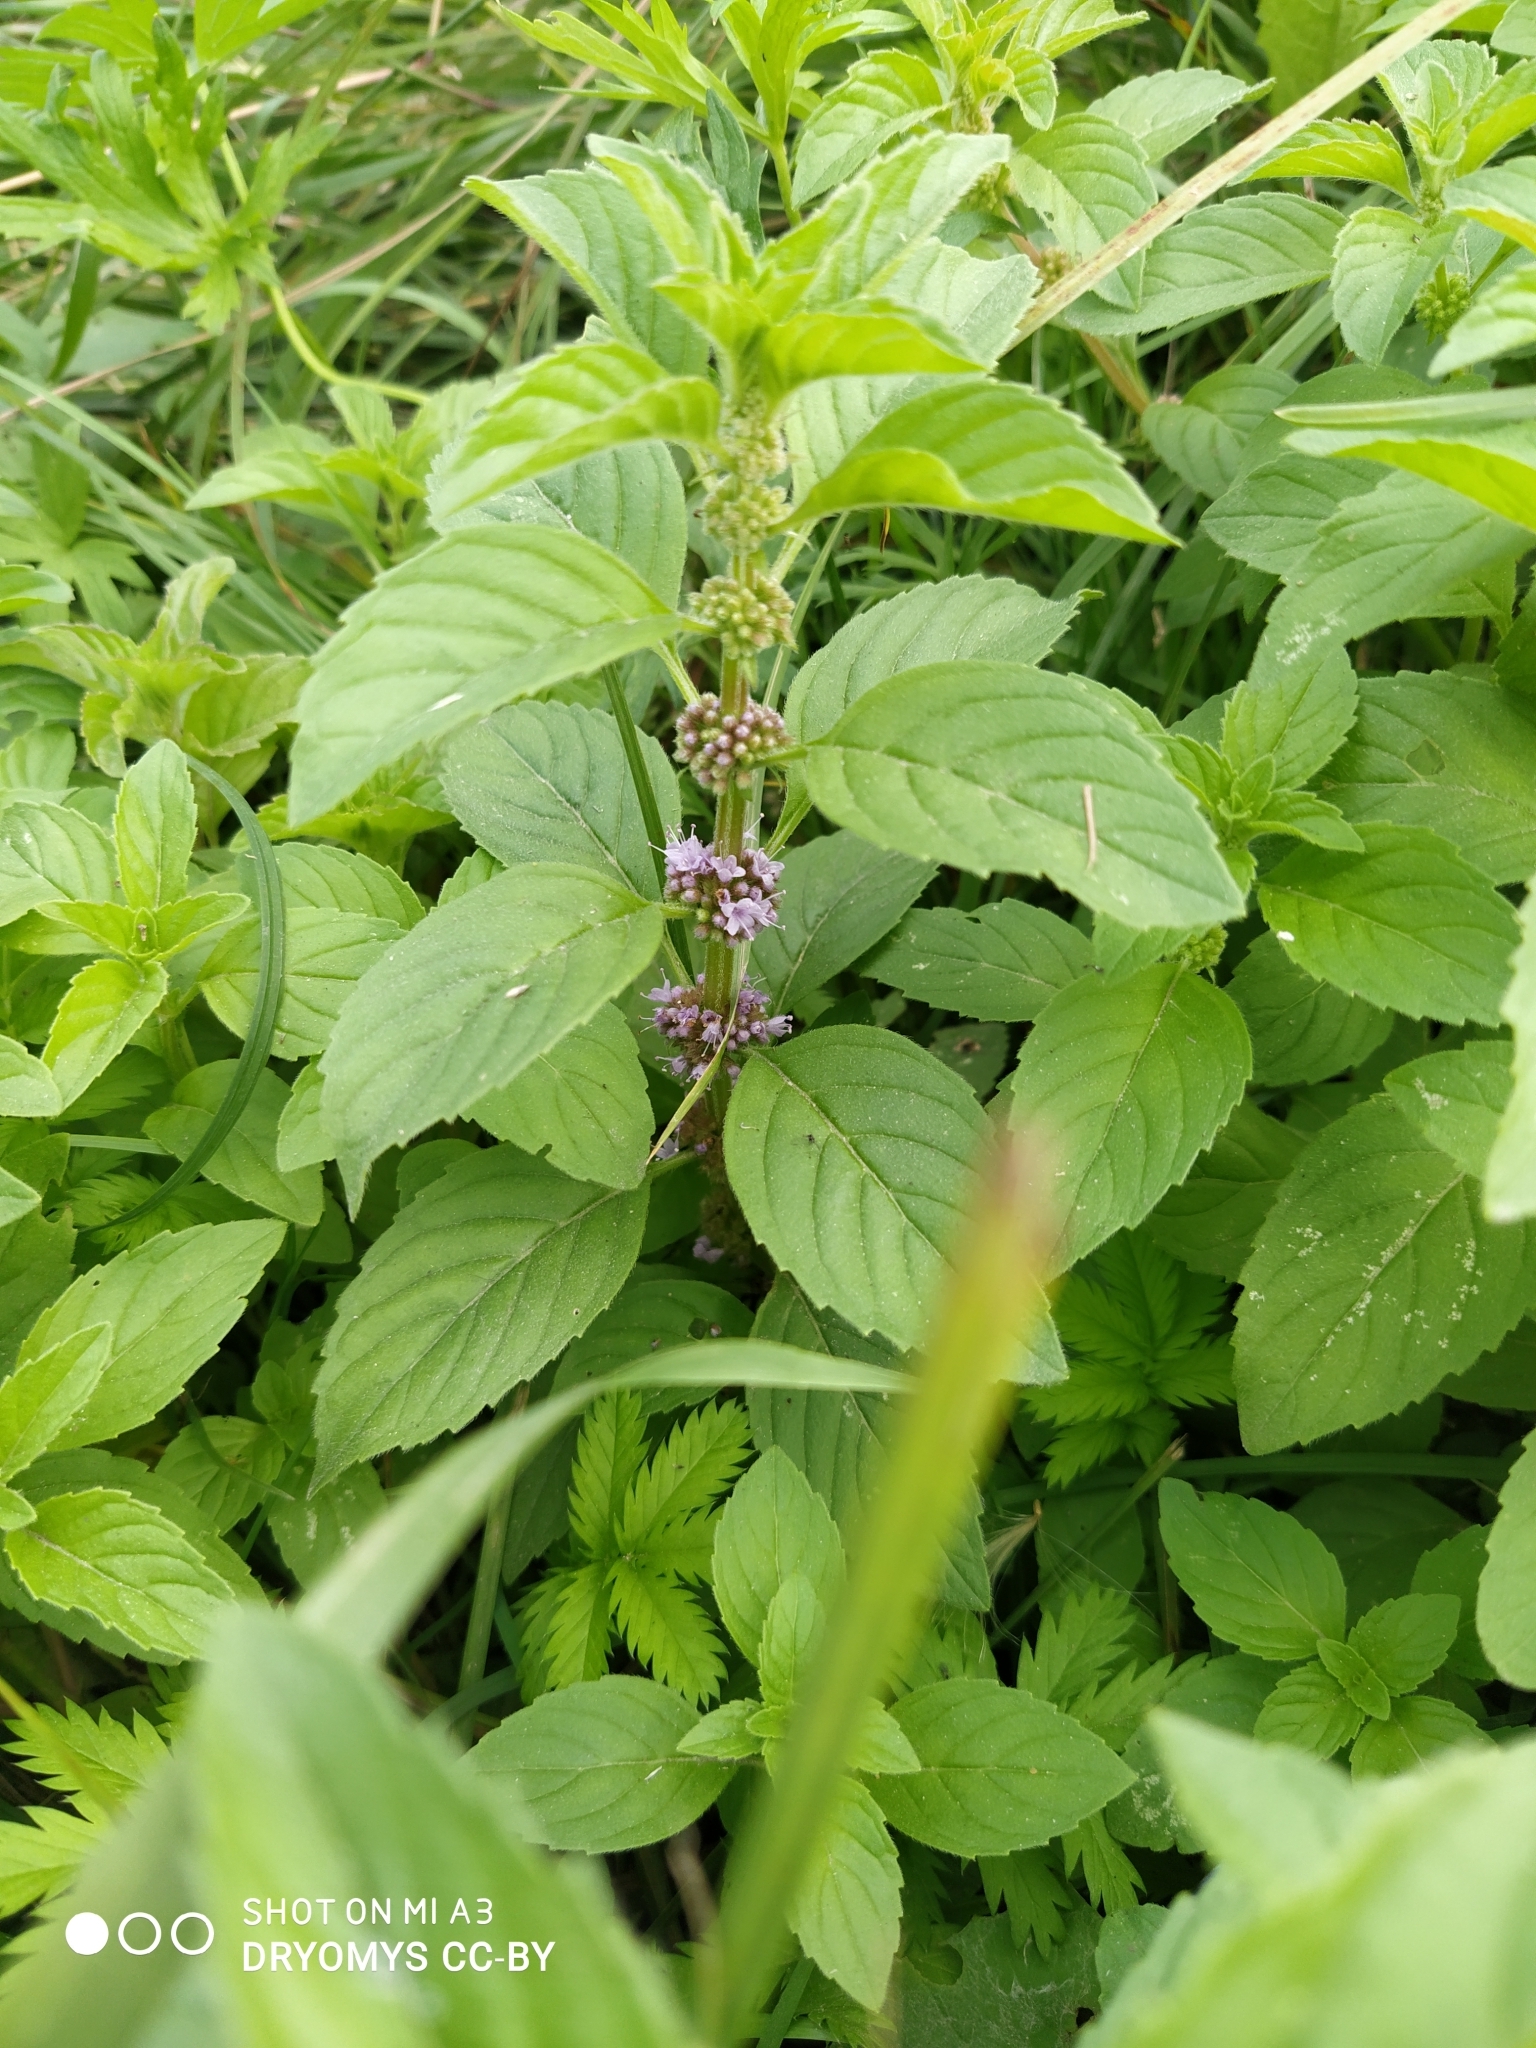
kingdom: Plantae
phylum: Tracheophyta
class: Magnoliopsida
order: Lamiales
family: Lamiaceae
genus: Mentha
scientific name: Mentha arvensis
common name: Corn mint
